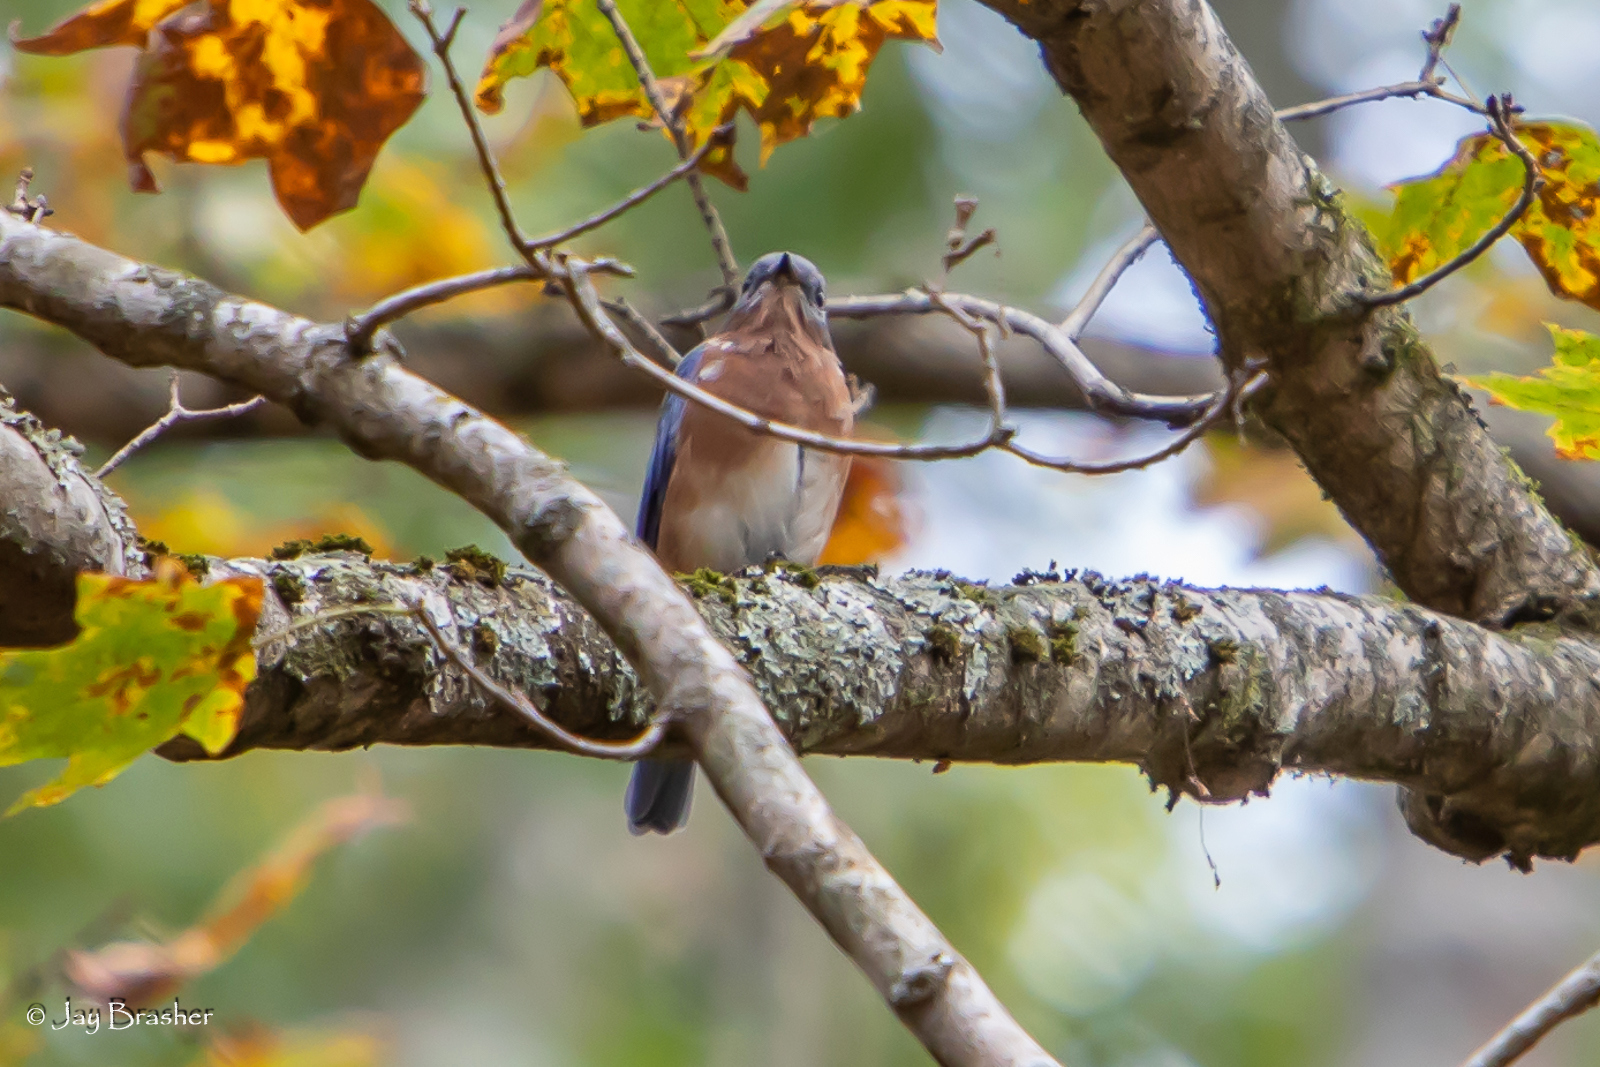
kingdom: Animalia
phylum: Chordata
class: Aves
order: Passeriformes
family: Turdidae
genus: Sialia
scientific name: Sialia sialis
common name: Eastern bluebird
